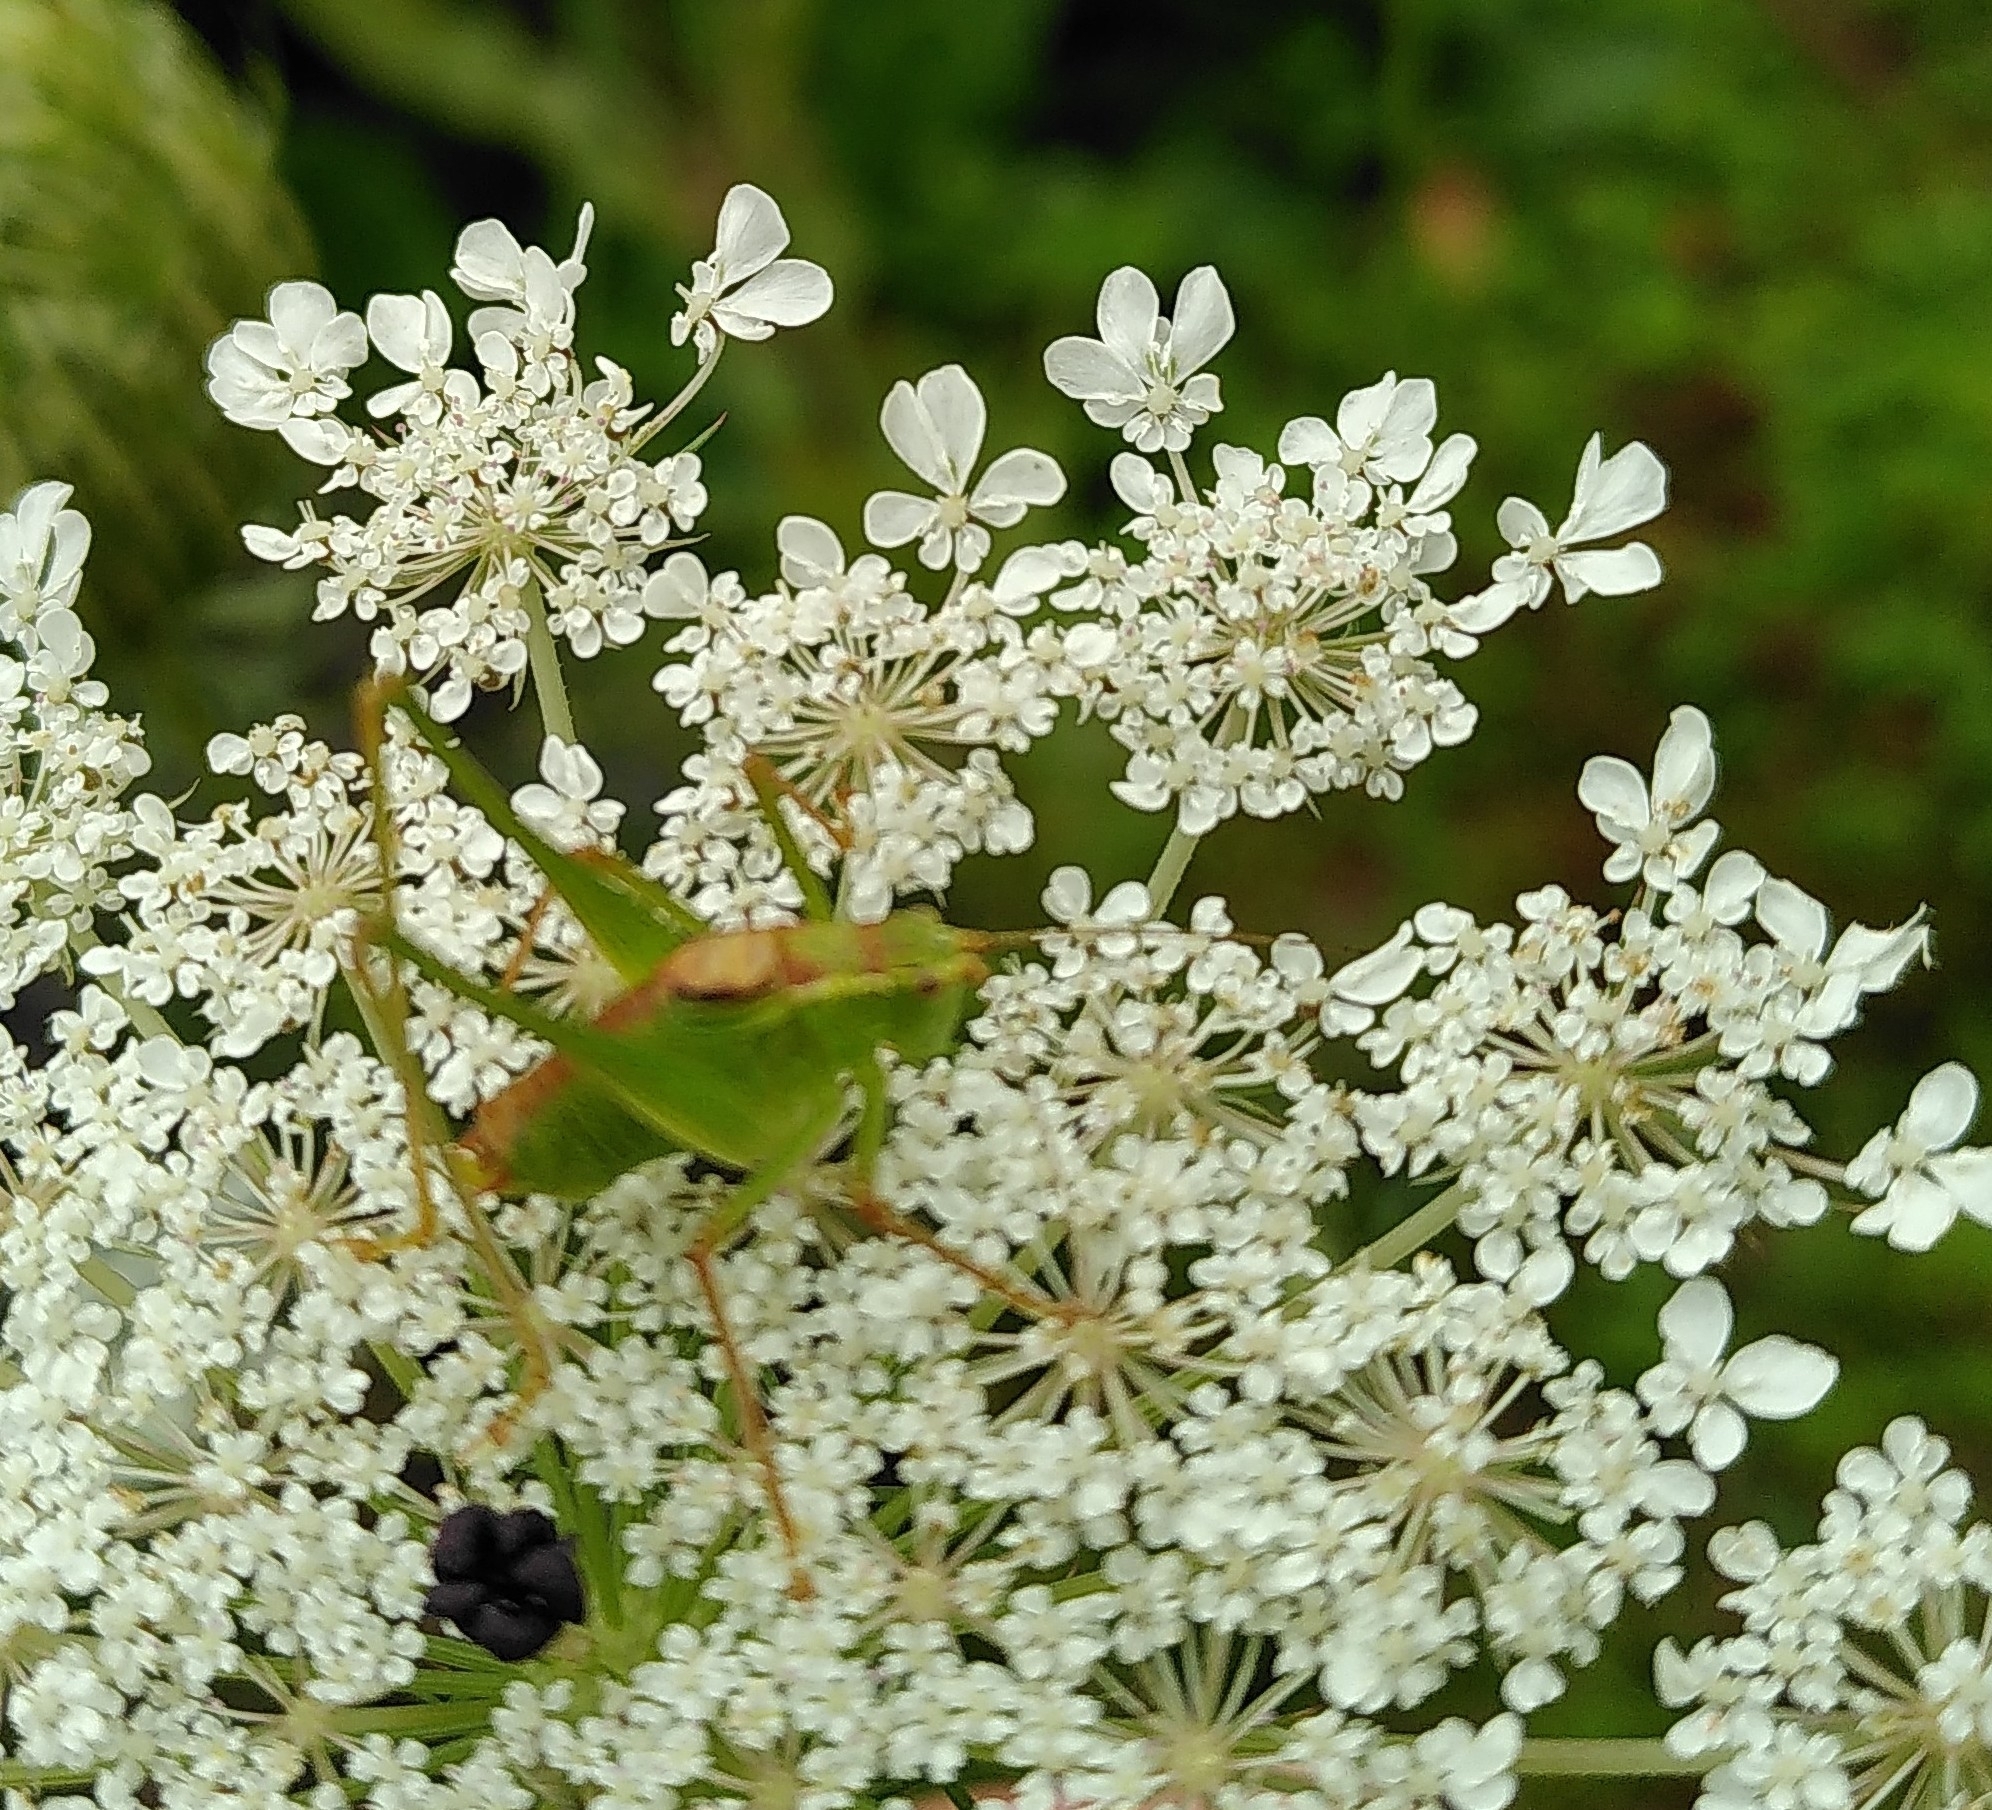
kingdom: Animalia
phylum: Arthropoda
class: Insecta
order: Orthoptera
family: Tettigoniidae
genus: Leptophyes
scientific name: Leptophyes punctatissima
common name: Speckled bush-cricket
